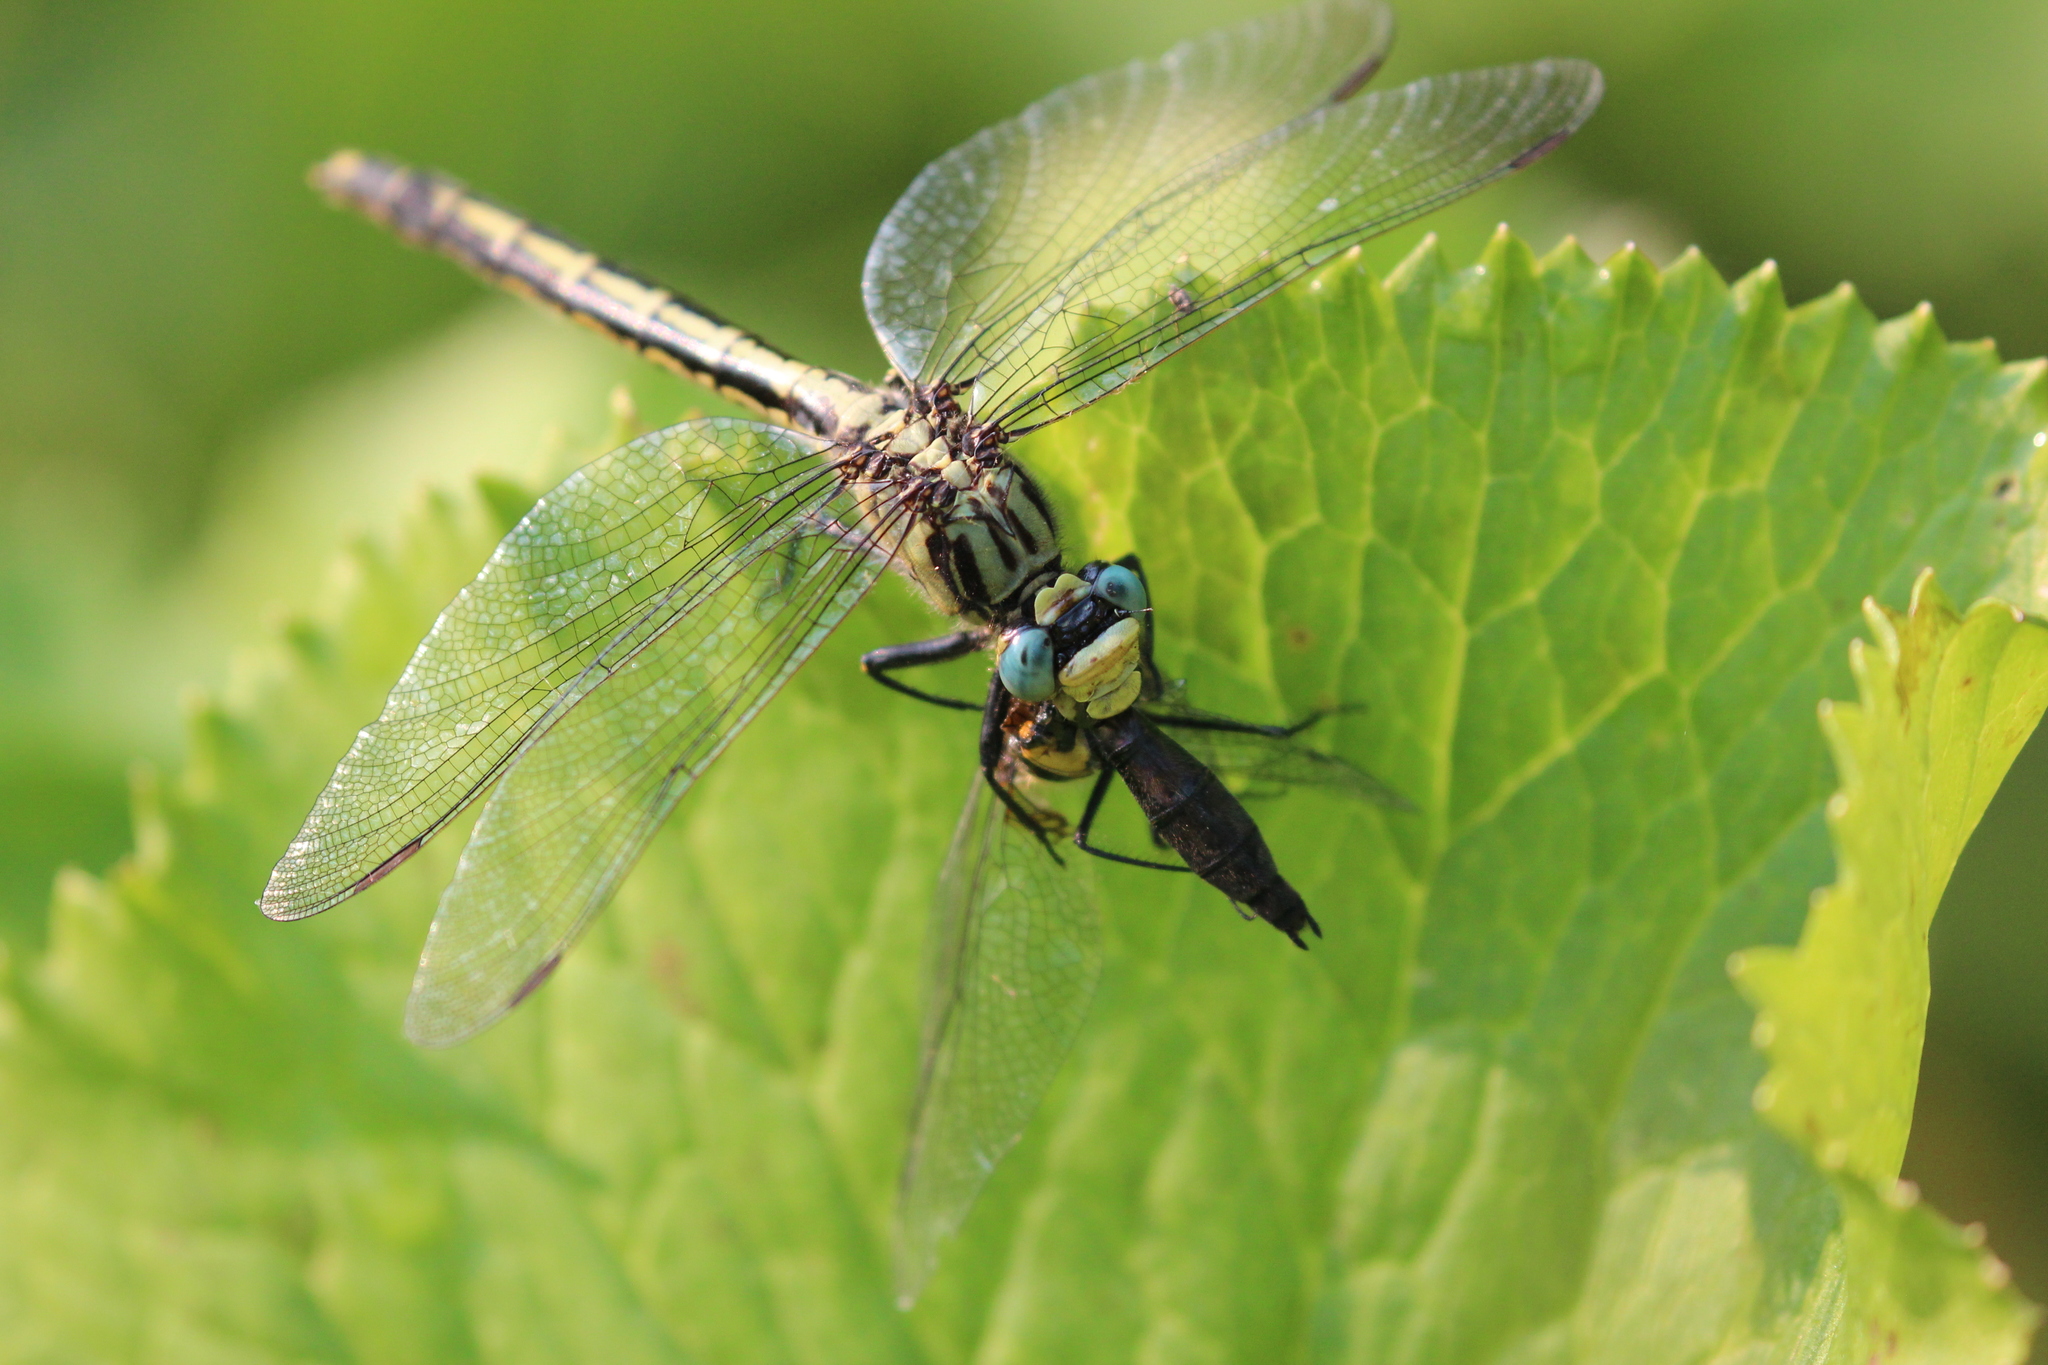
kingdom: Animalia
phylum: Arthropoda
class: Insecta
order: Odonata
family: Gomphidae
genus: Arigomphus
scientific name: Arigomphus cornutus
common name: Horned clubtail
